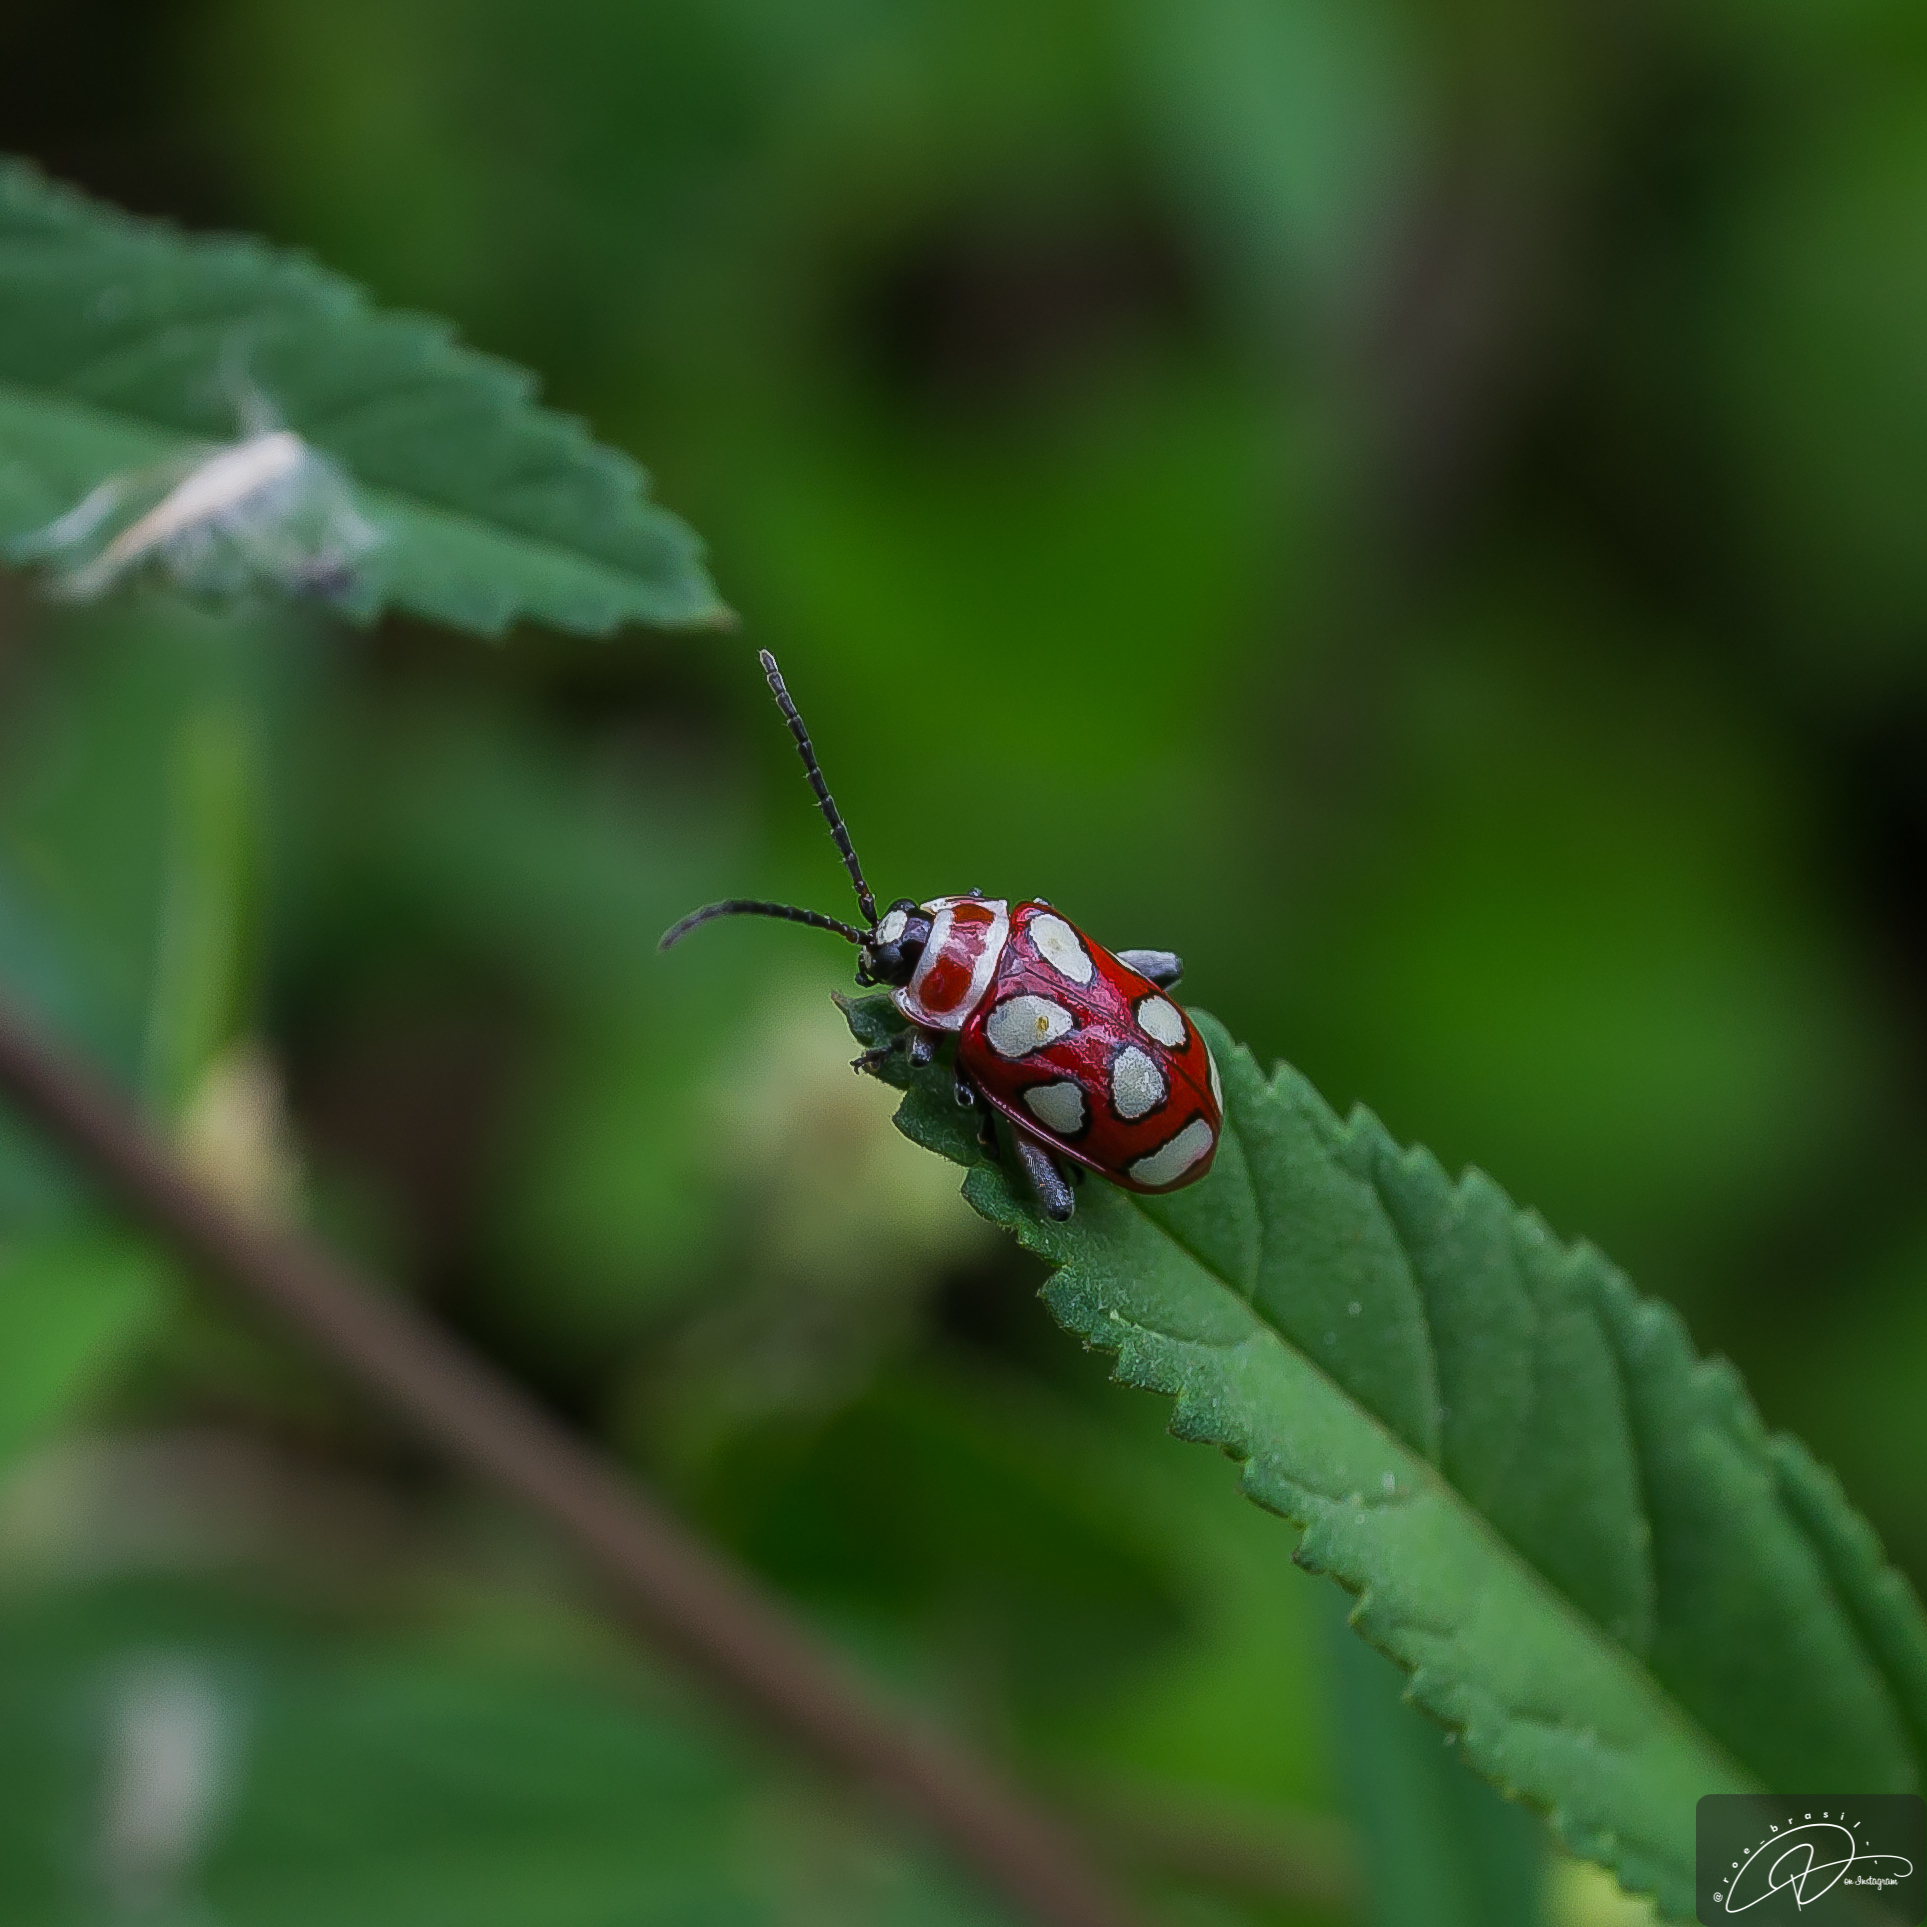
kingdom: Animalia
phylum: Arthropoda
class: Insecta
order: Coleoptera
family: Chrysomelidae
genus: Omophoita
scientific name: Omophoita
